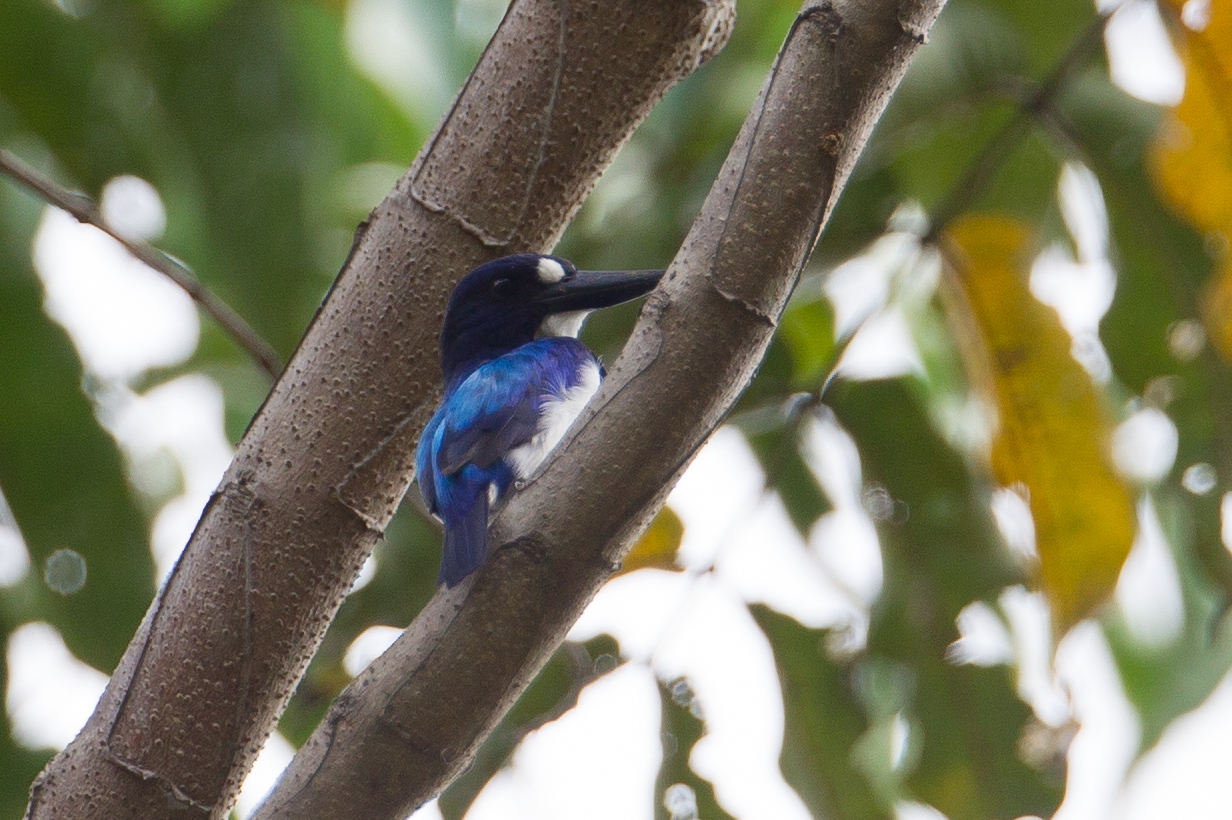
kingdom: Animalia
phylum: Chordata
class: Aves
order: Coraciiformes
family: Alcedinidae
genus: Todiramphus
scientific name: Todiramphus diops
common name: Blue-and-white kingfisher
